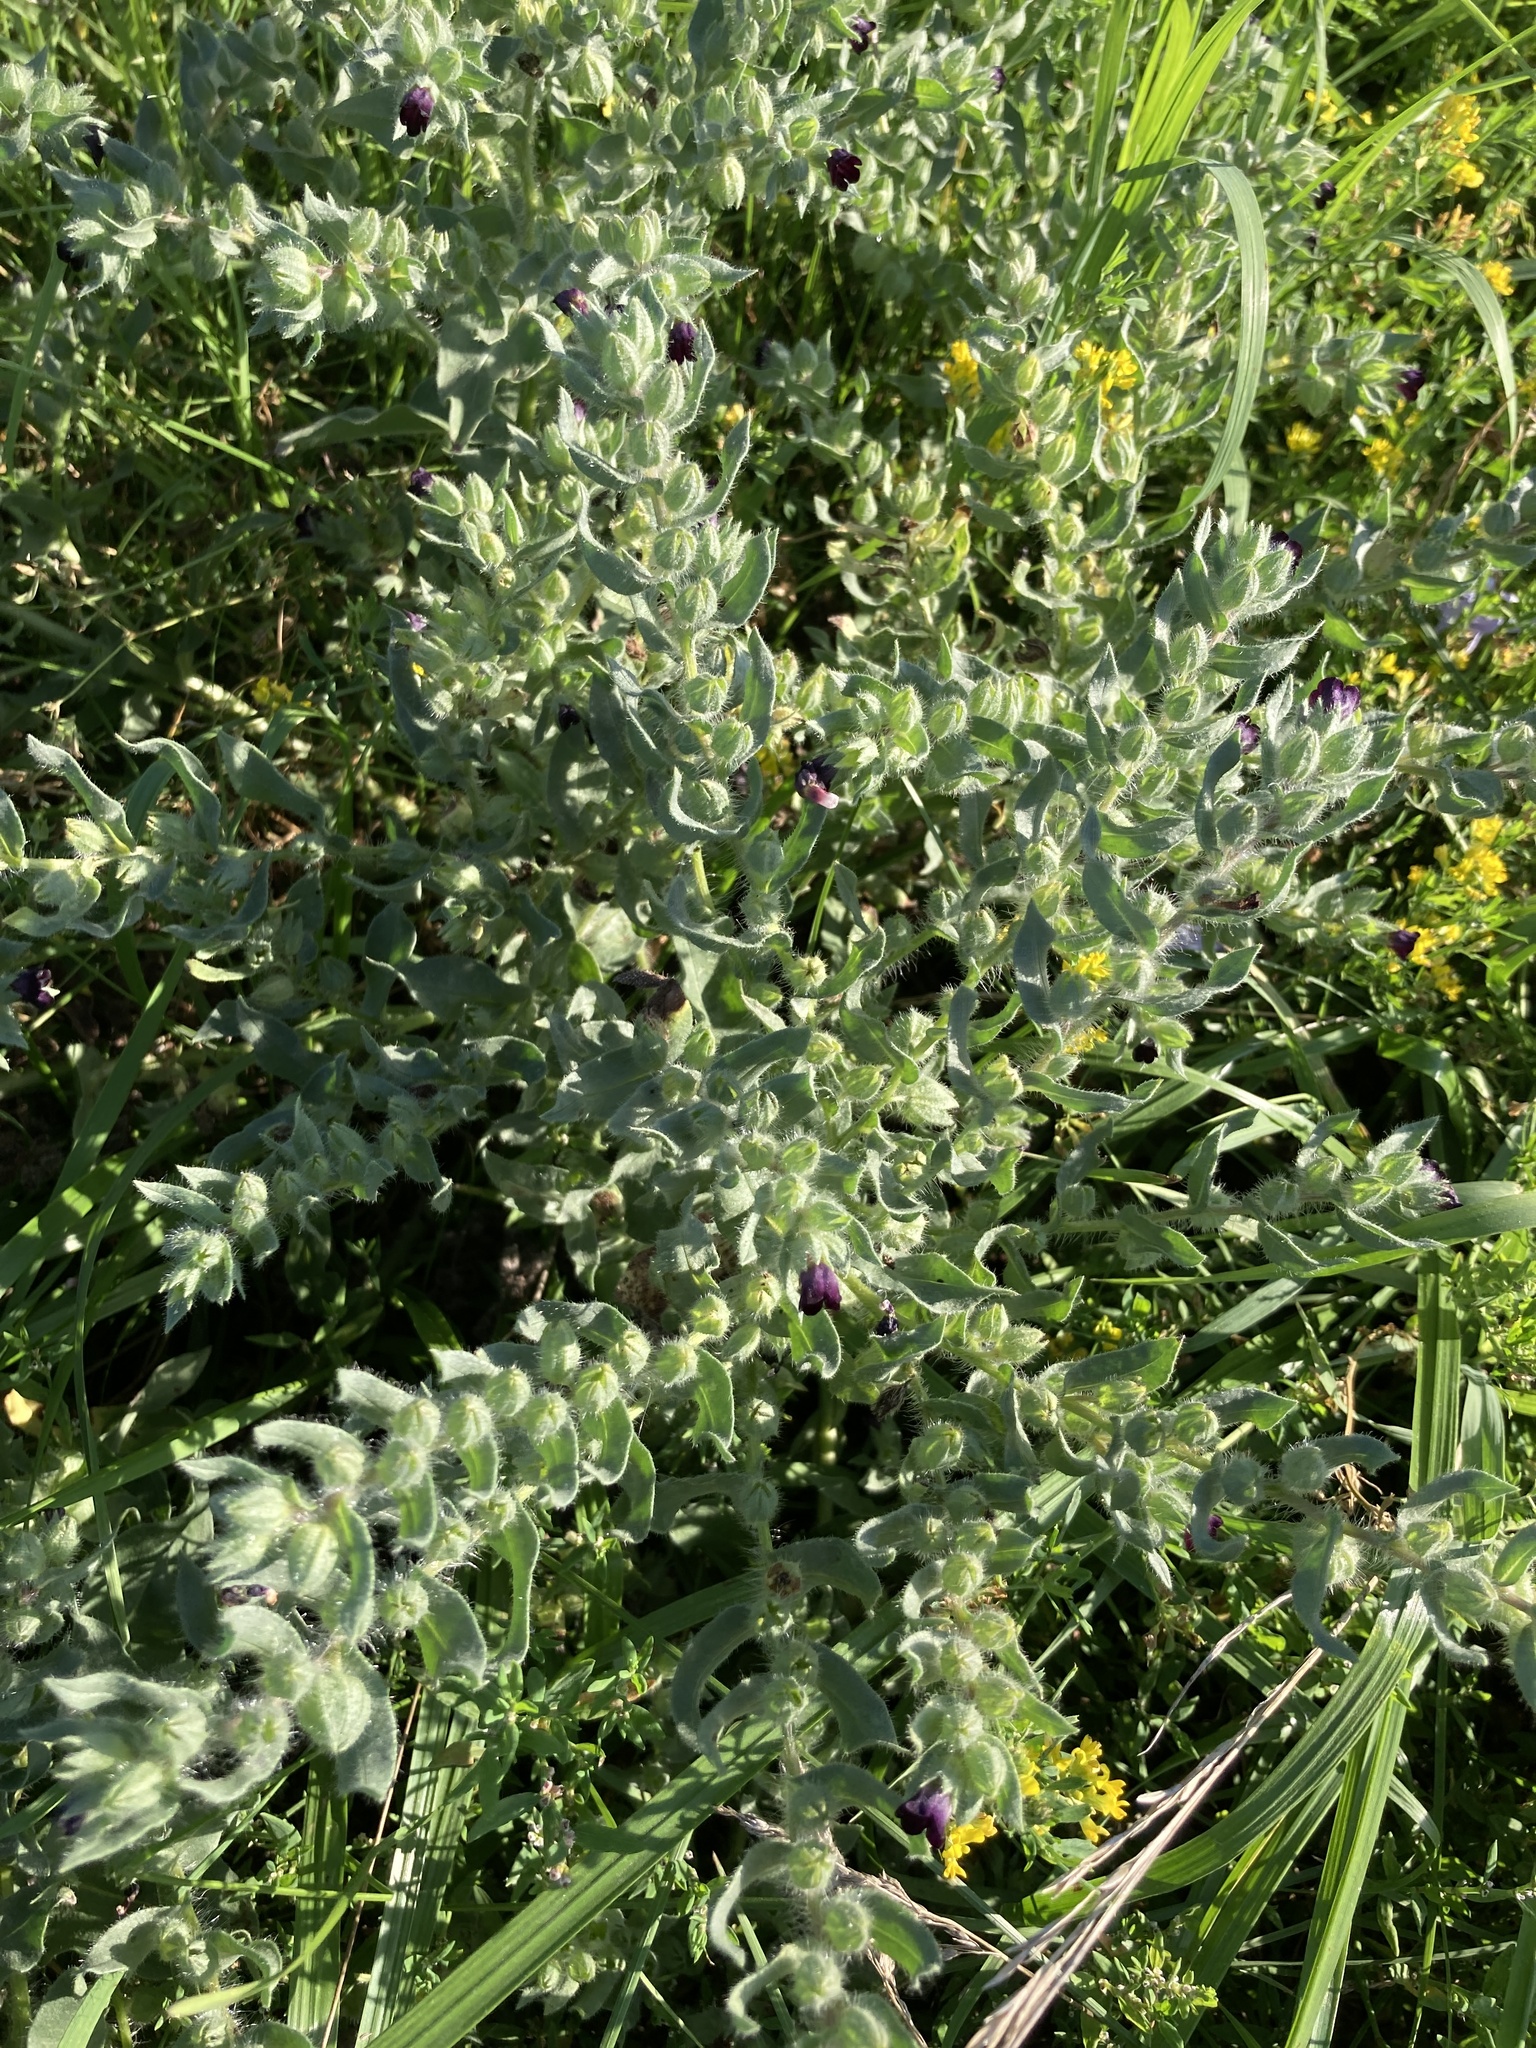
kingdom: Plantae
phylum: Tracheophyta
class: Magnoliopsida
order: Boraginales
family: Boraginaceae
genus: Nonea
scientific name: Nonea pulla
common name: Brown nonea
